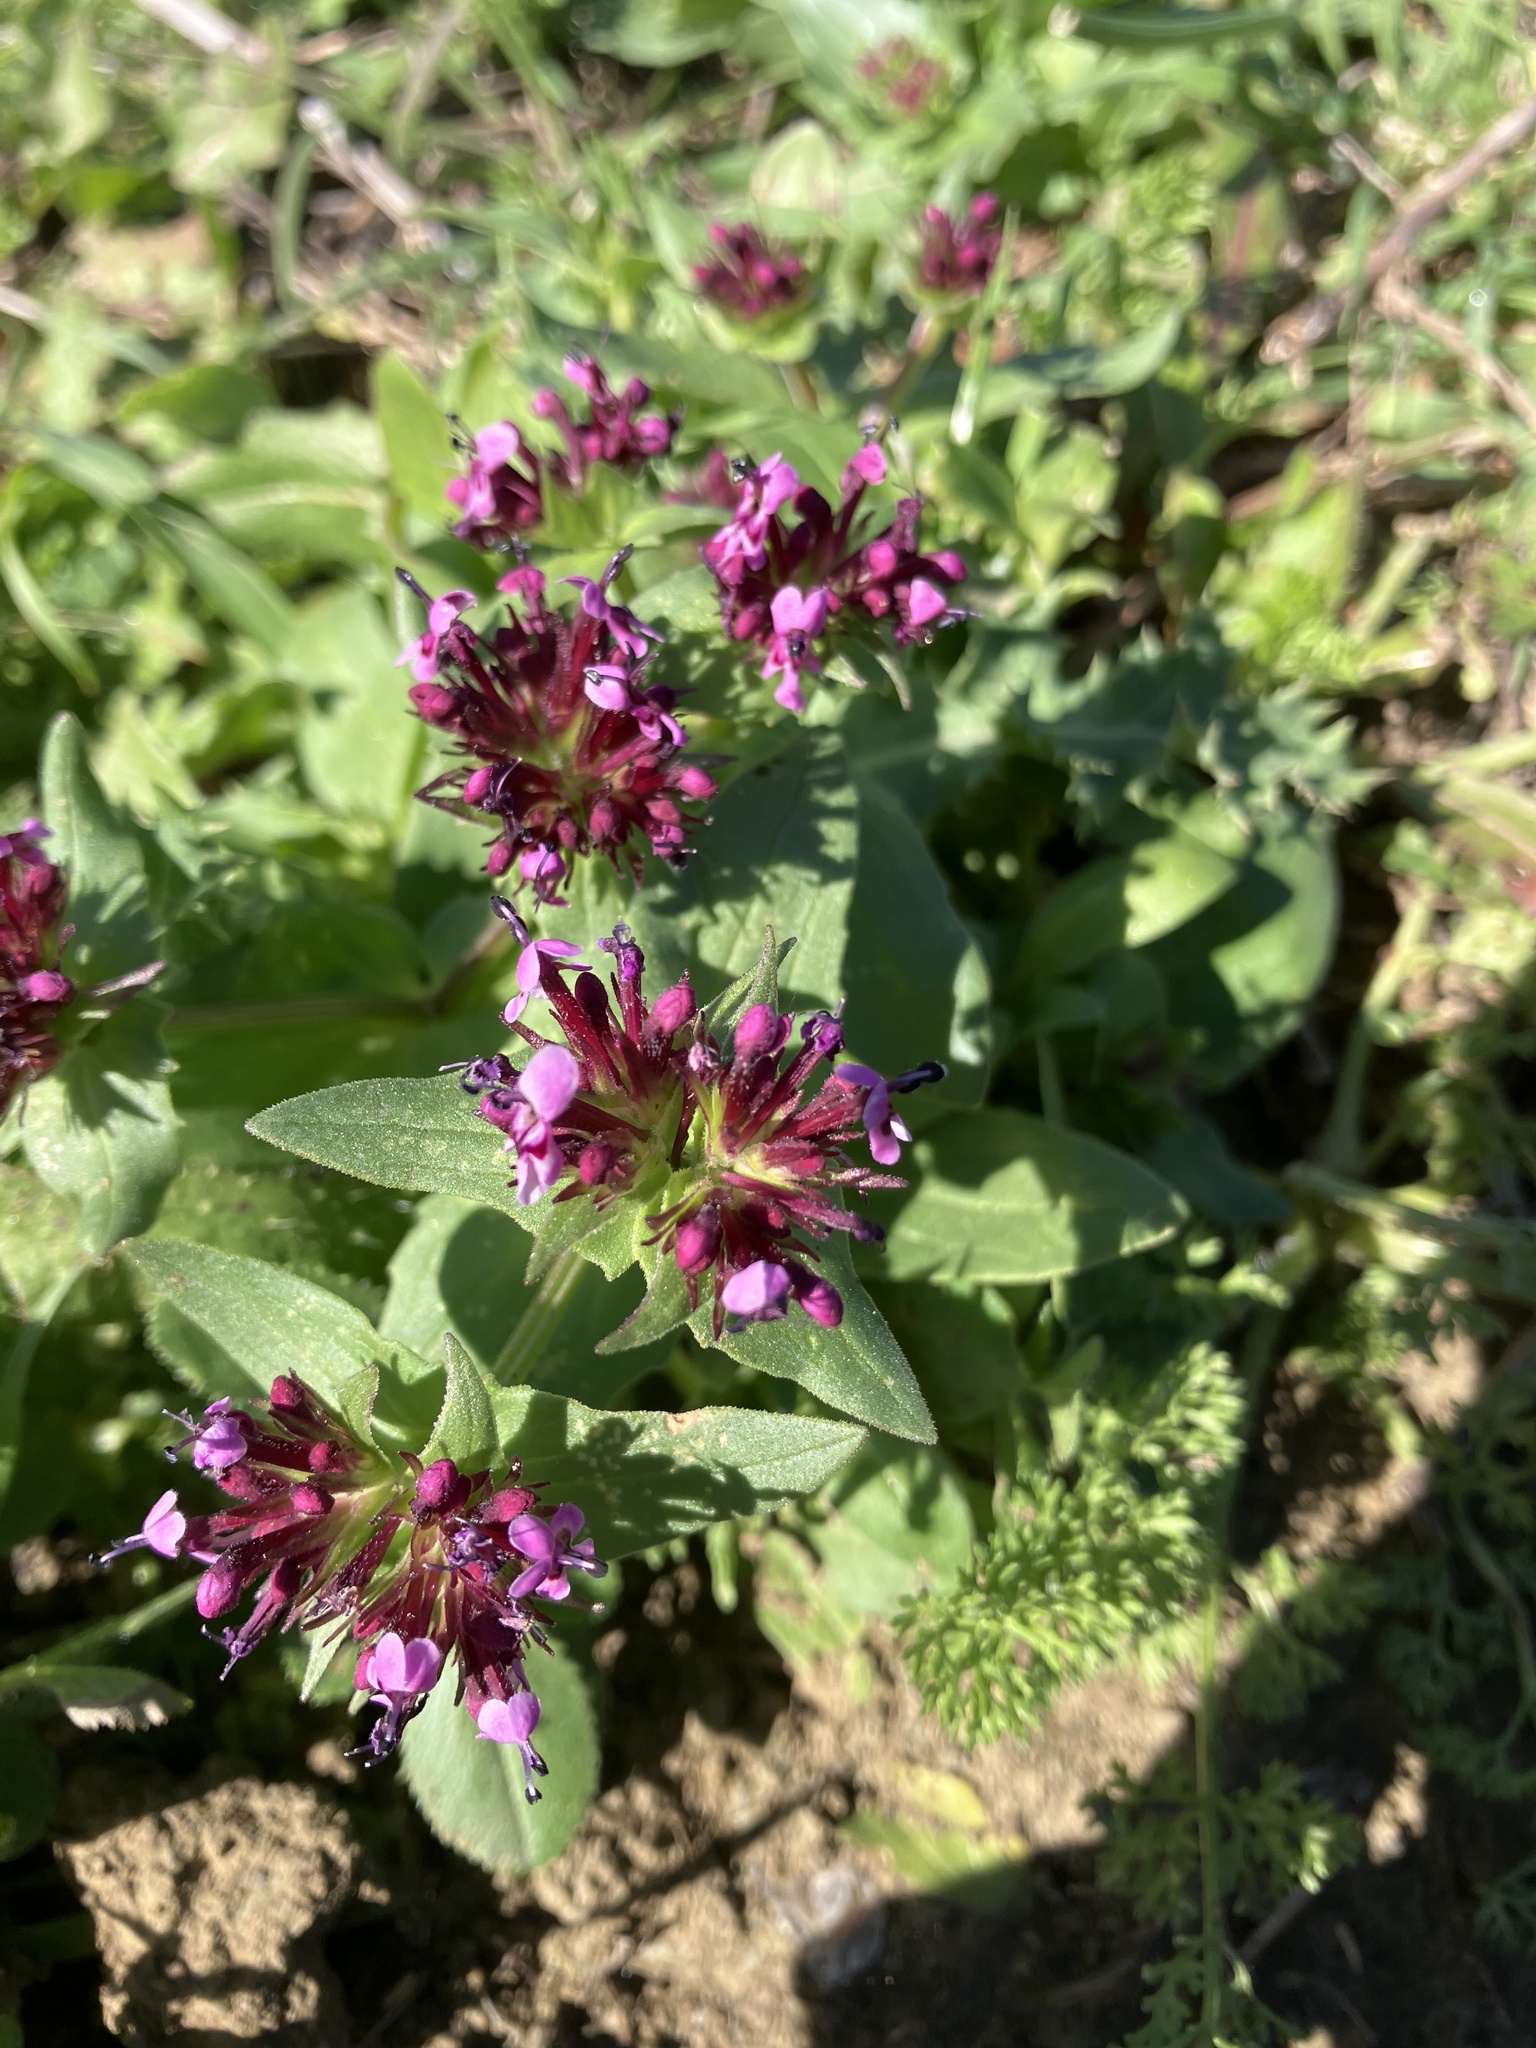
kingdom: Plantae
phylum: Tracheophyta
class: Magnoliopsida
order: Dipsacales
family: Caprifoliaceae
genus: Fedia
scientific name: Fedia cornucopiae
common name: Horn-of-plenty
